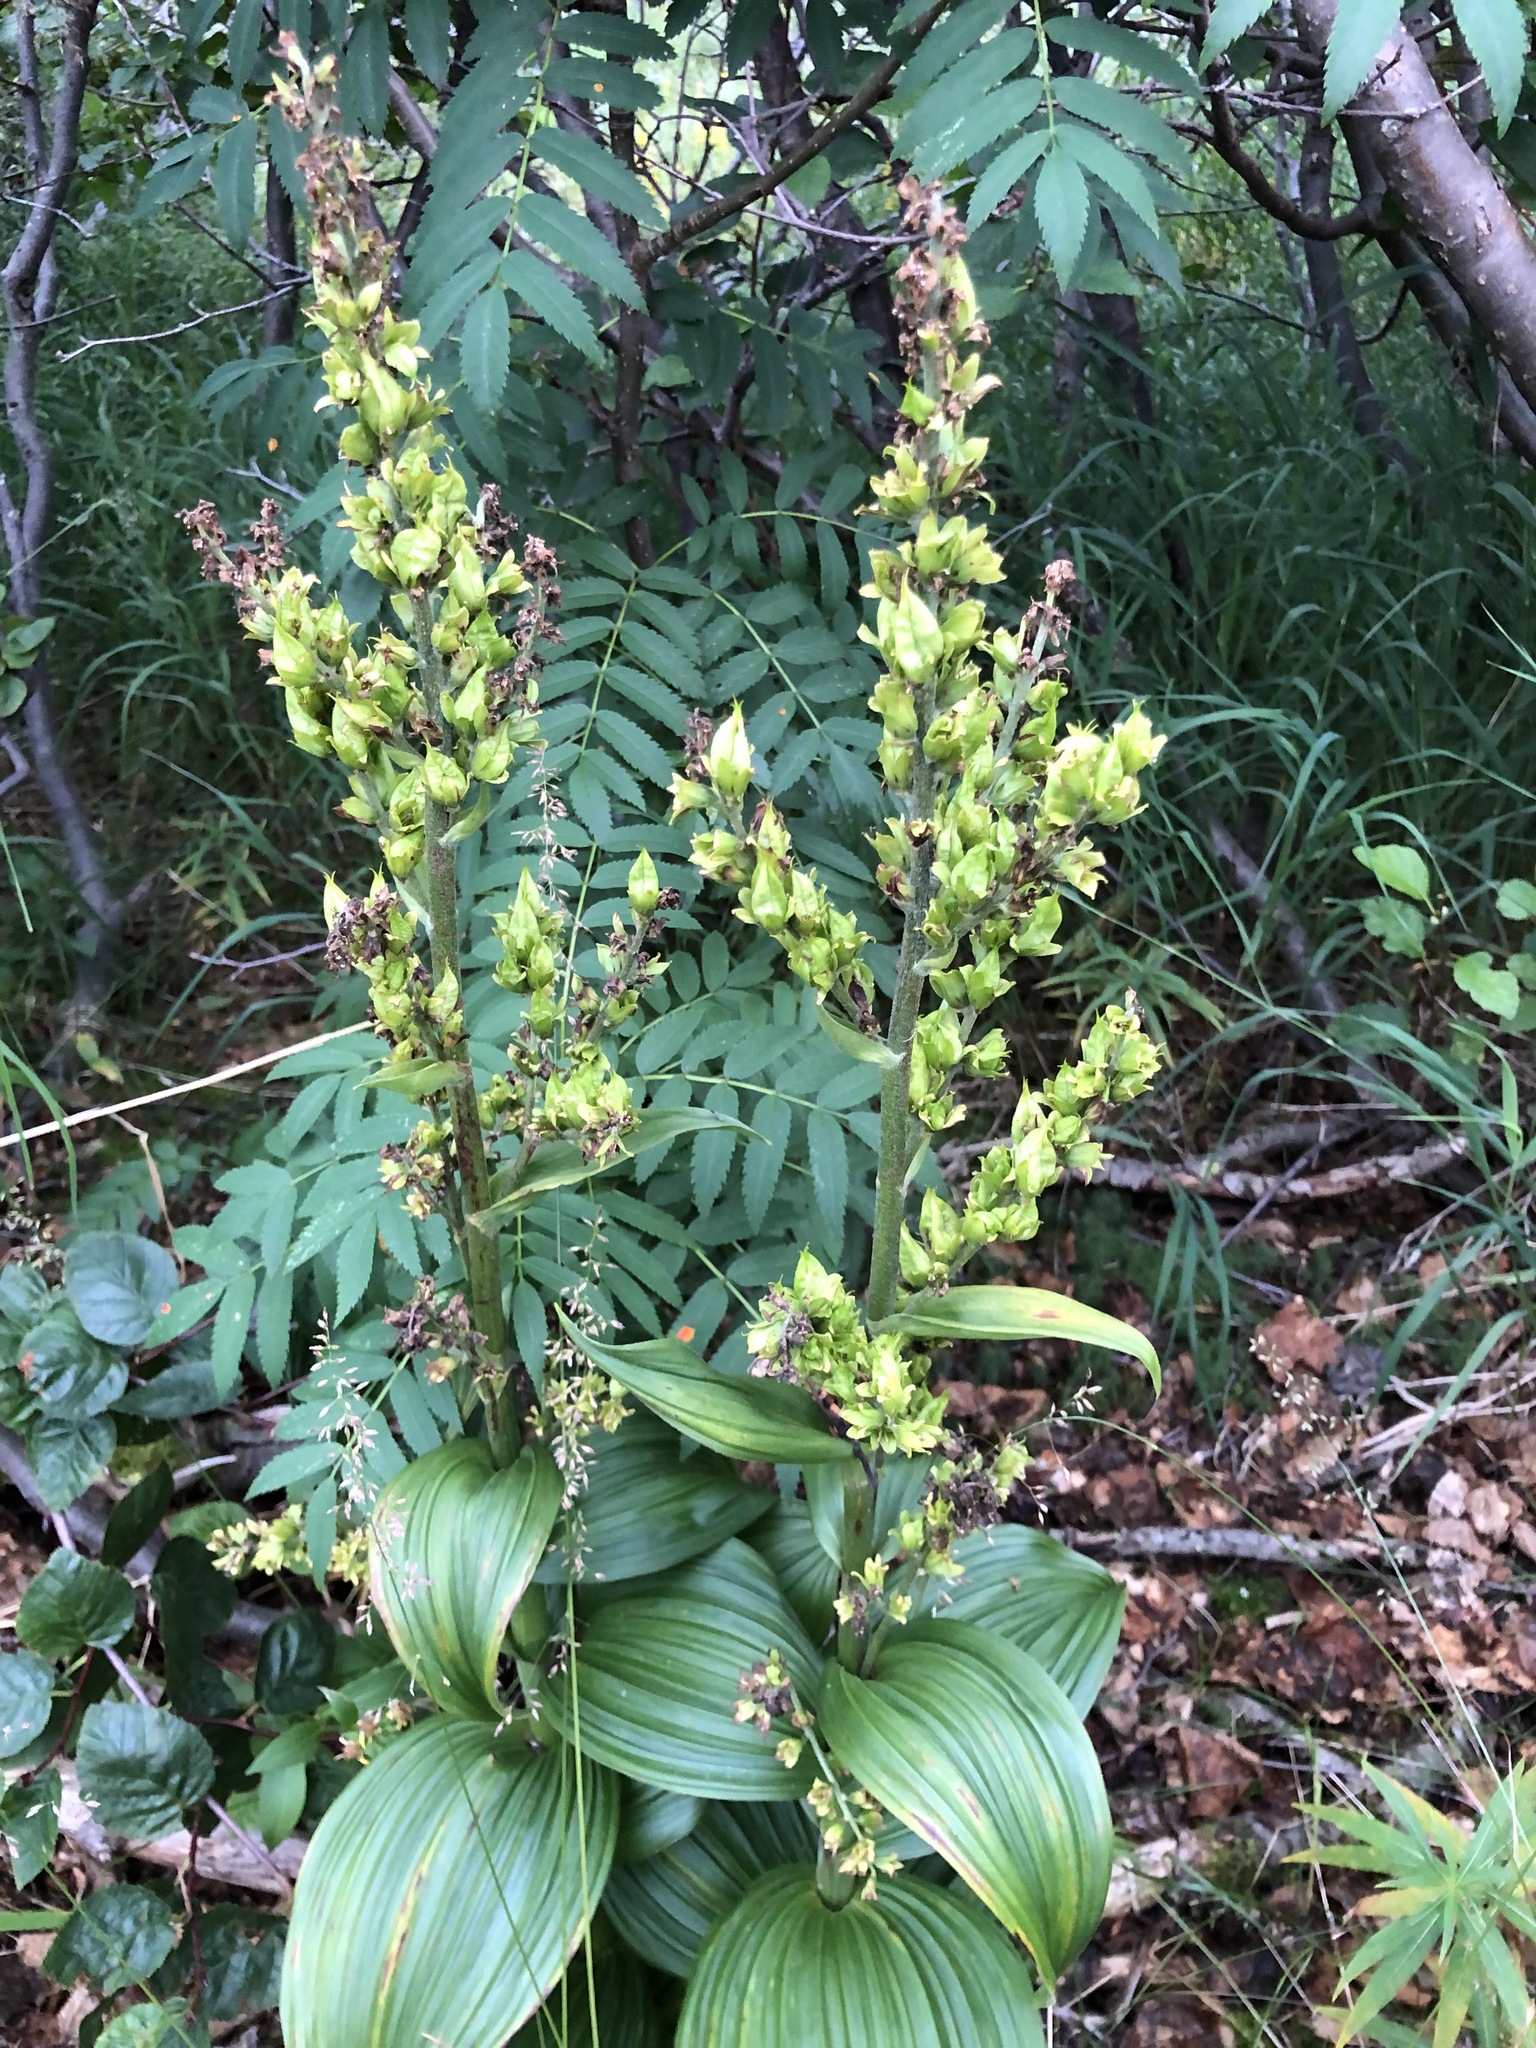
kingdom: Plantae
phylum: Tracheophyta
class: Liliopsida
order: Liliales
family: Melanthiaceae
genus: Veratrum
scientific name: Veratrum lobelianum
